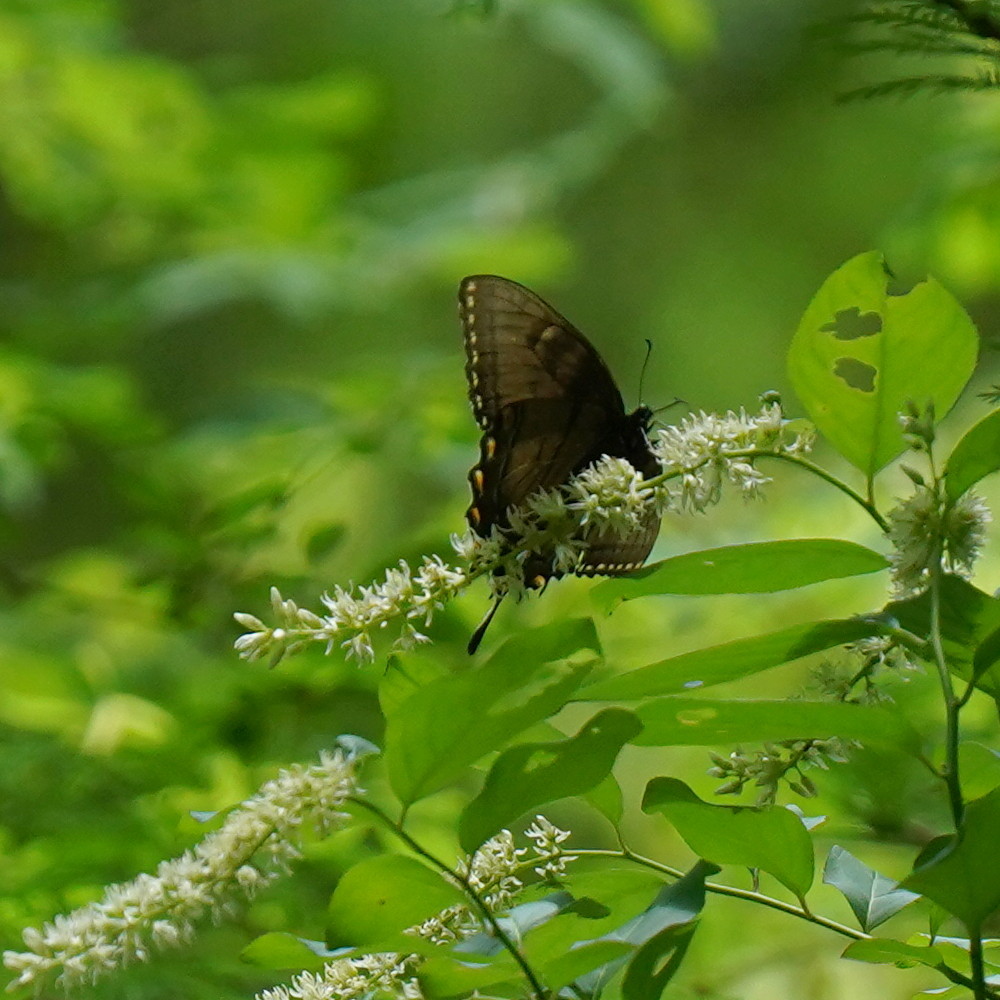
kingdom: Animalia
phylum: Arthropoda
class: Insecta
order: Lepidoptera
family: Papilionidae
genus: Papilio
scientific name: Papilio glaucus
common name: Tiger swallowtail
